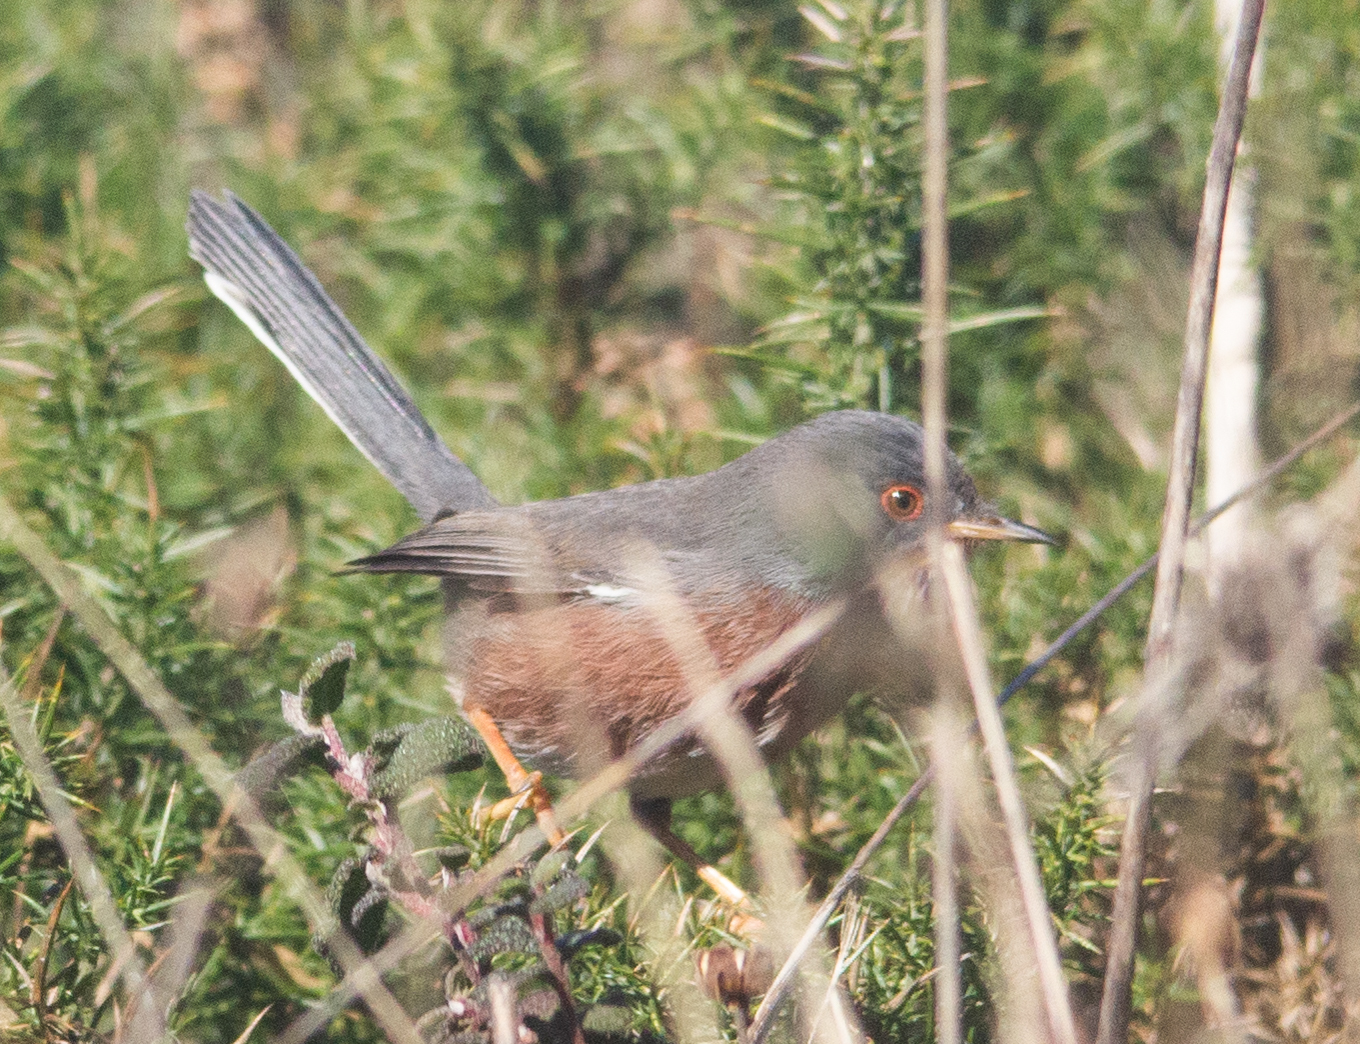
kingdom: Animalia
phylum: Chordata
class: Aves
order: Passeriformes
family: Sylviidae
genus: Sylvia
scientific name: Sylvia undata
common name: Dartford warbler
